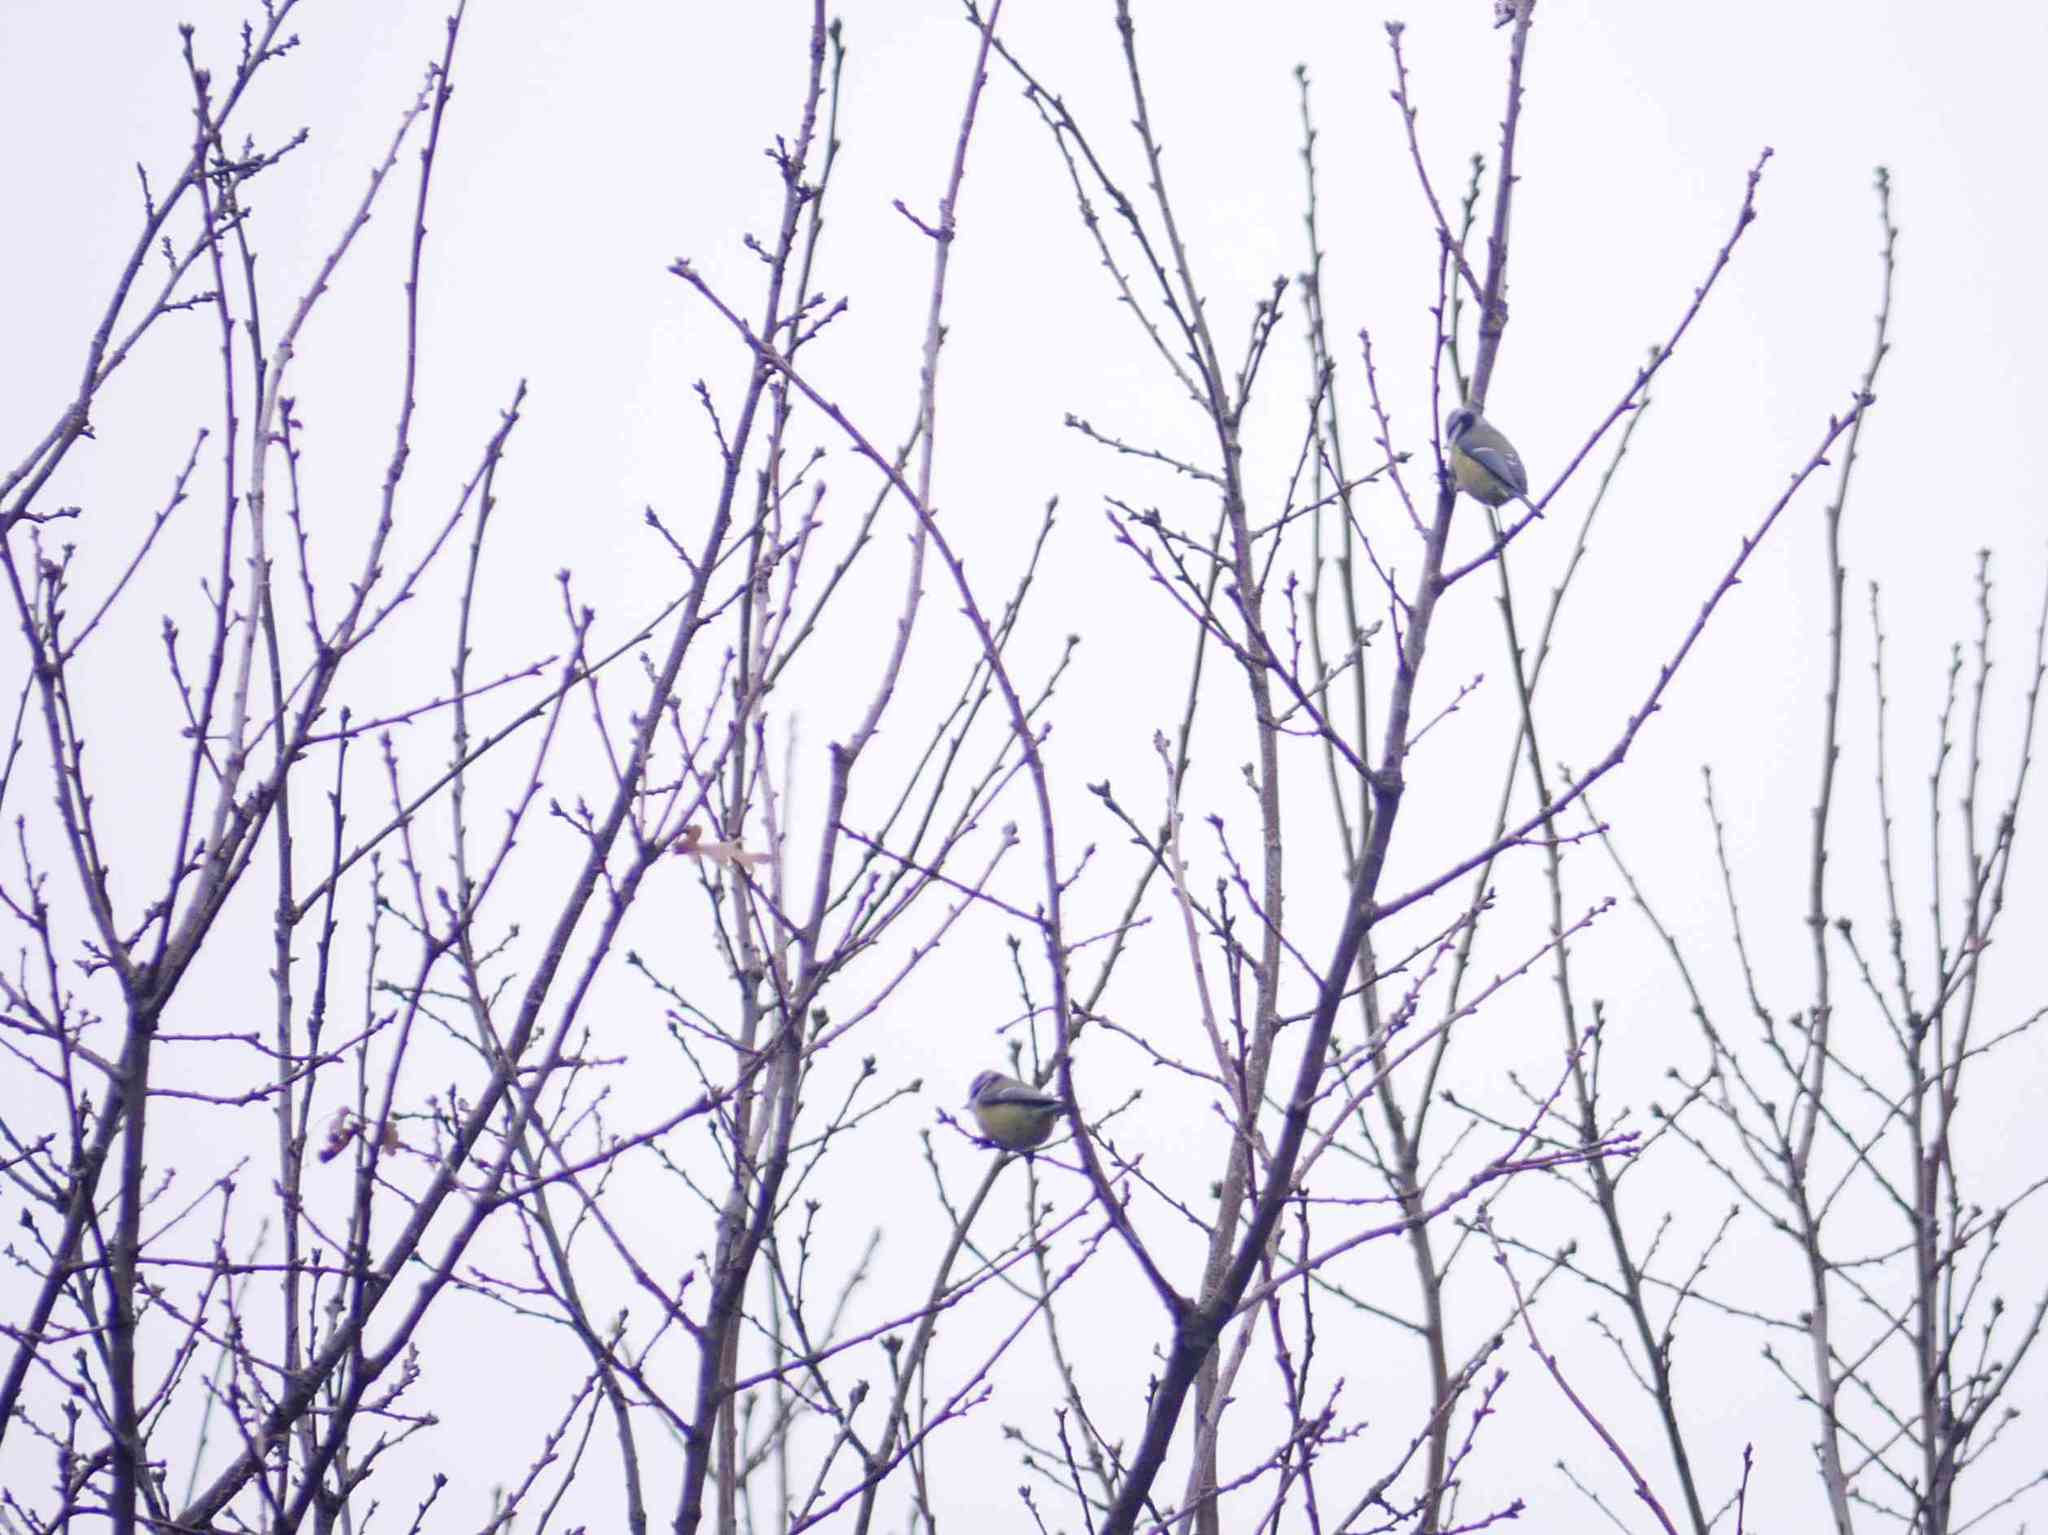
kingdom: Animalia
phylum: Chordata
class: Aves
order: Passeriformes
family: Paridae
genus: Cyanistes
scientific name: Cyanistes caeruleus
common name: Eurasian blue tit
